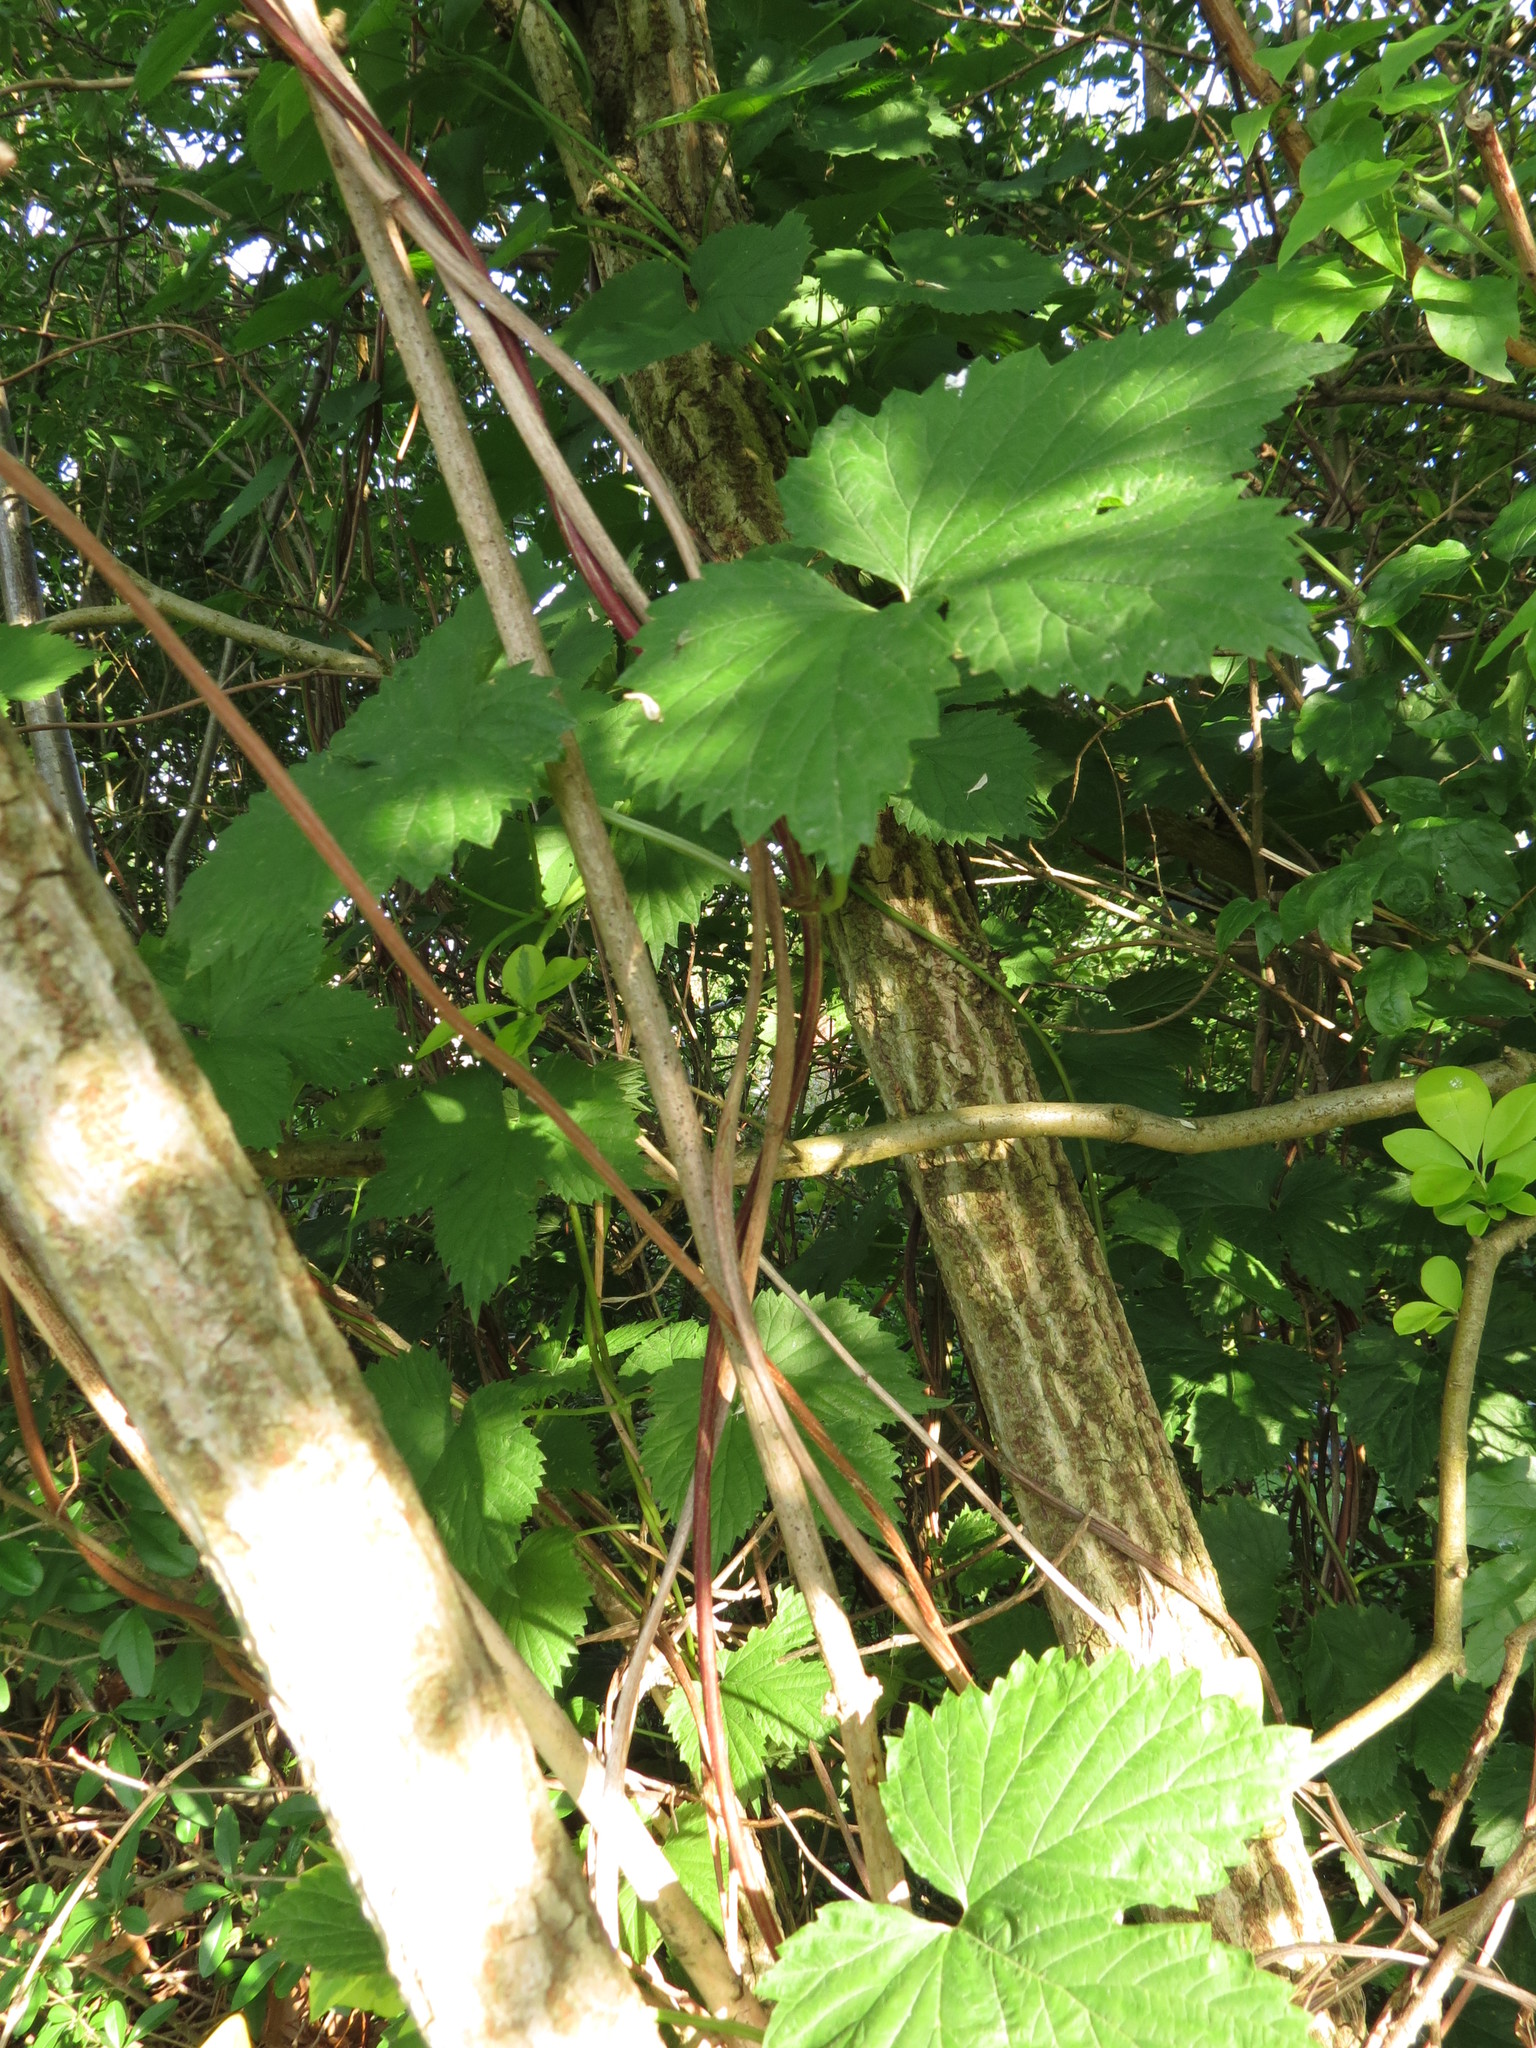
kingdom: Plantae
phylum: Tracheophyta
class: Magnoliopsida
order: Rosales
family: Cannabaceae
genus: Humulus
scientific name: Humulus lupulus
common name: Hop
